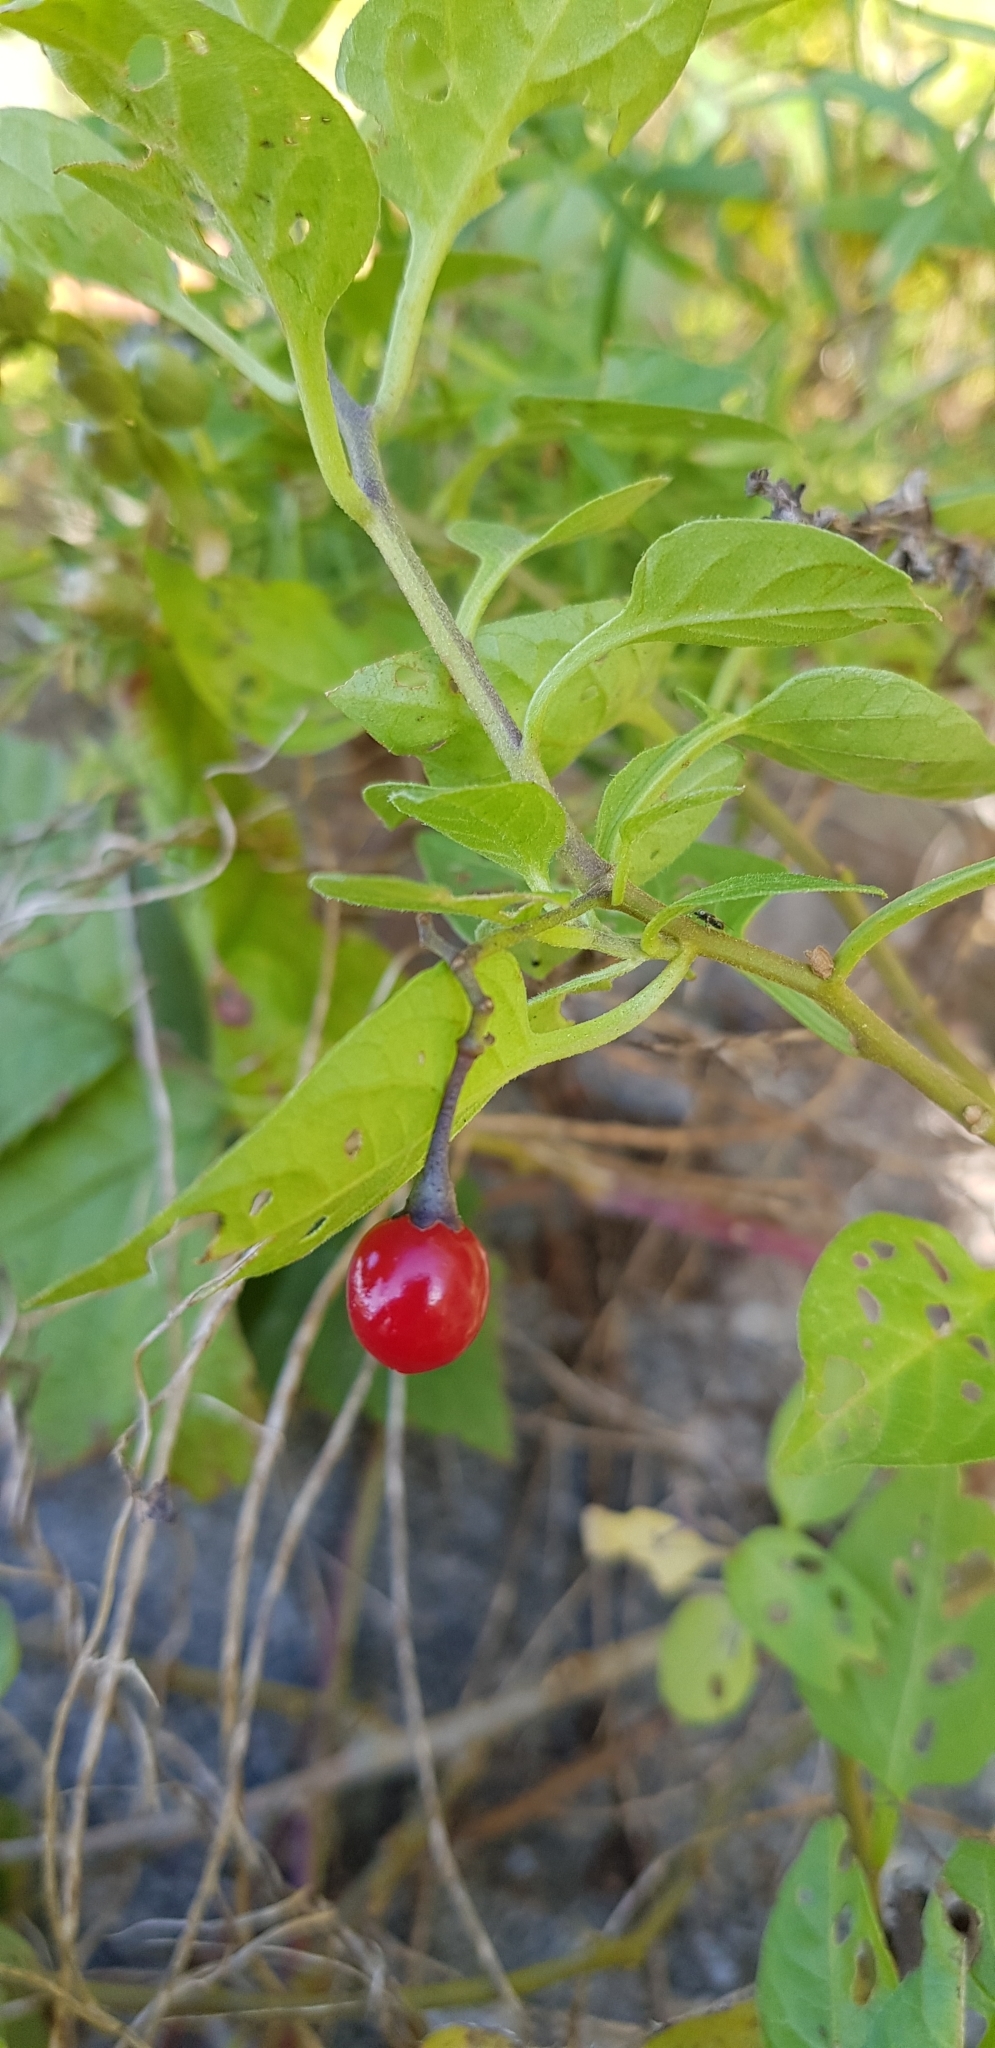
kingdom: Plantae
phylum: Tracheophyta
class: Magnoliopsida
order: Solanales
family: Solanaceae
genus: Solanum
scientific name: Solanum dulcamara
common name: Climbing nightshade
